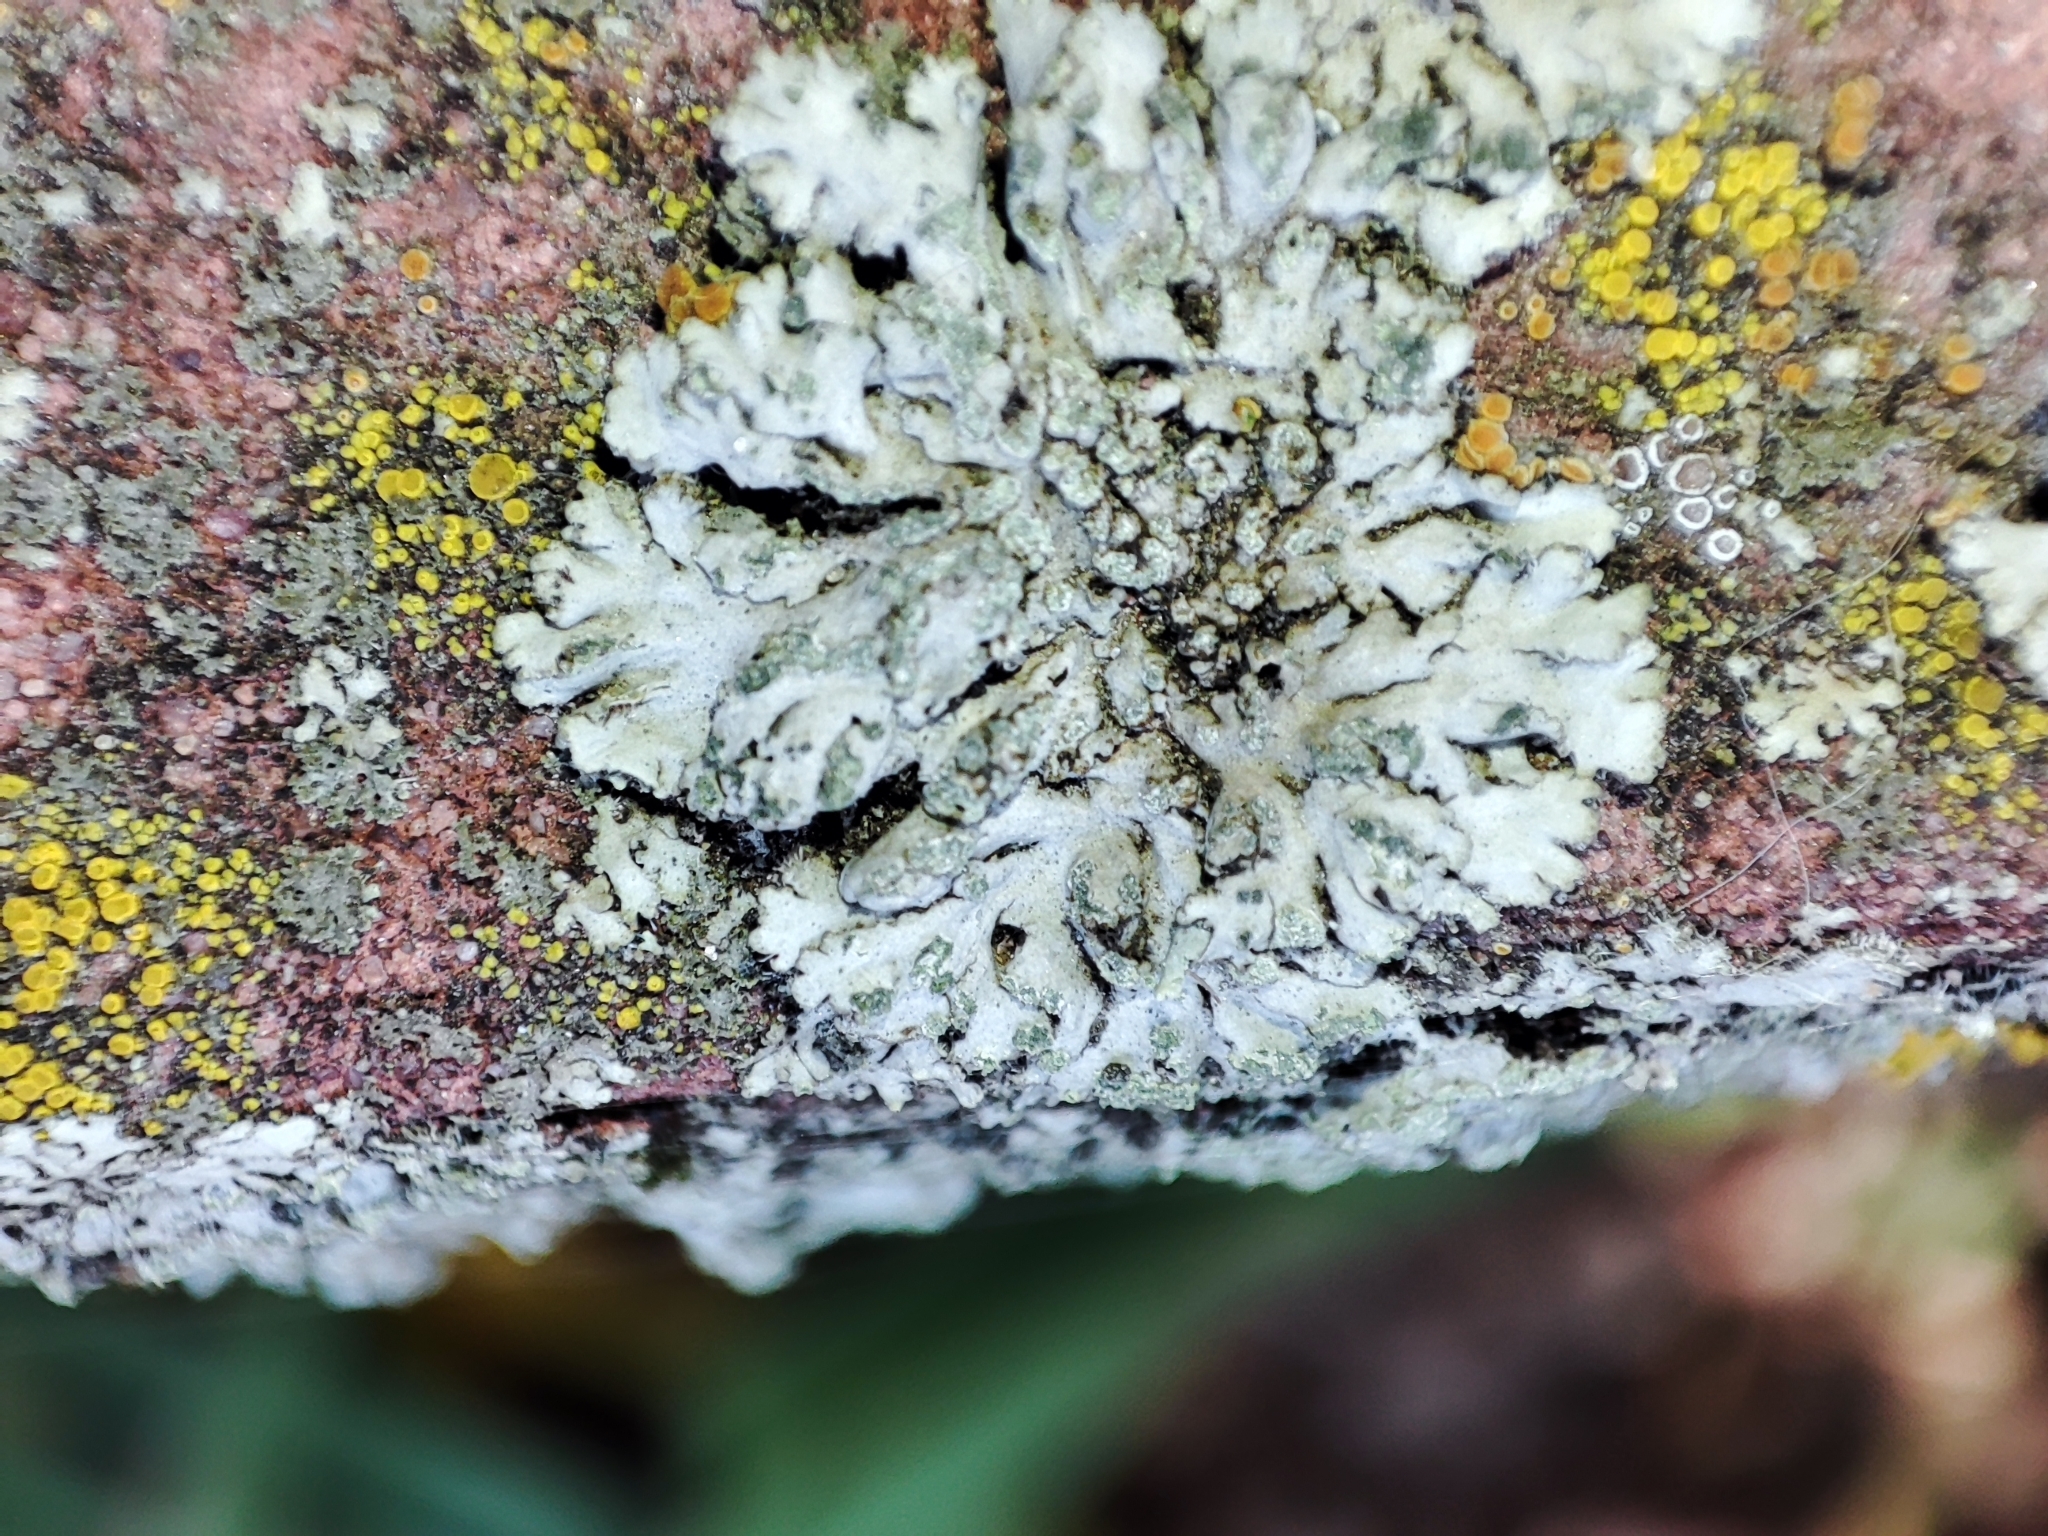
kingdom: Fungi
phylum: Ascomycota
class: Lecanoromycetes
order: Caliciales
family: Physciaceae
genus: Phaeophyscia
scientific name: Phaeophyscia orbicularis
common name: Mealy shadow lichen
